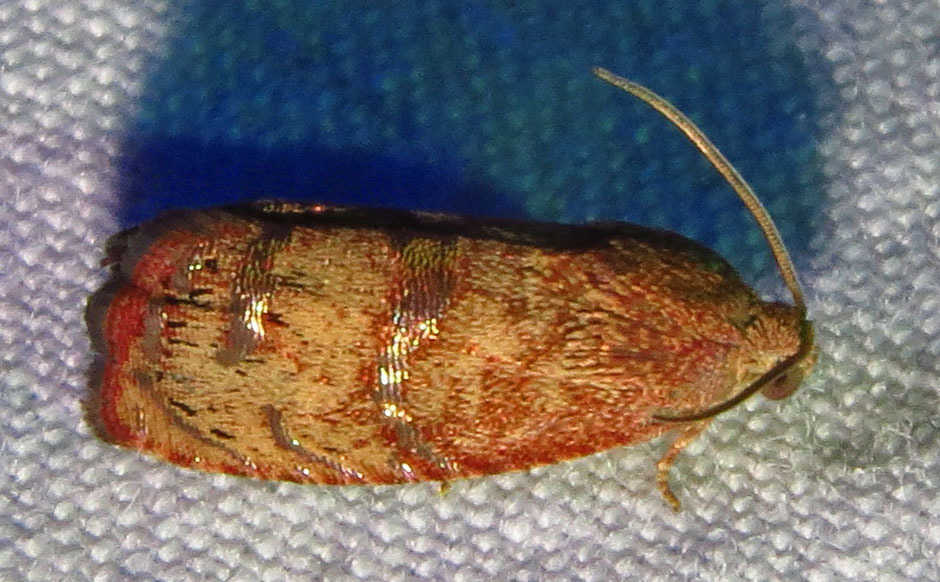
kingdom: Animalia
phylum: Arthropoda
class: Insecta
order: Lepidoptera
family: Tortricidae
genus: Cydia
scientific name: Cydia latiferreana
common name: Filbertworm moth
